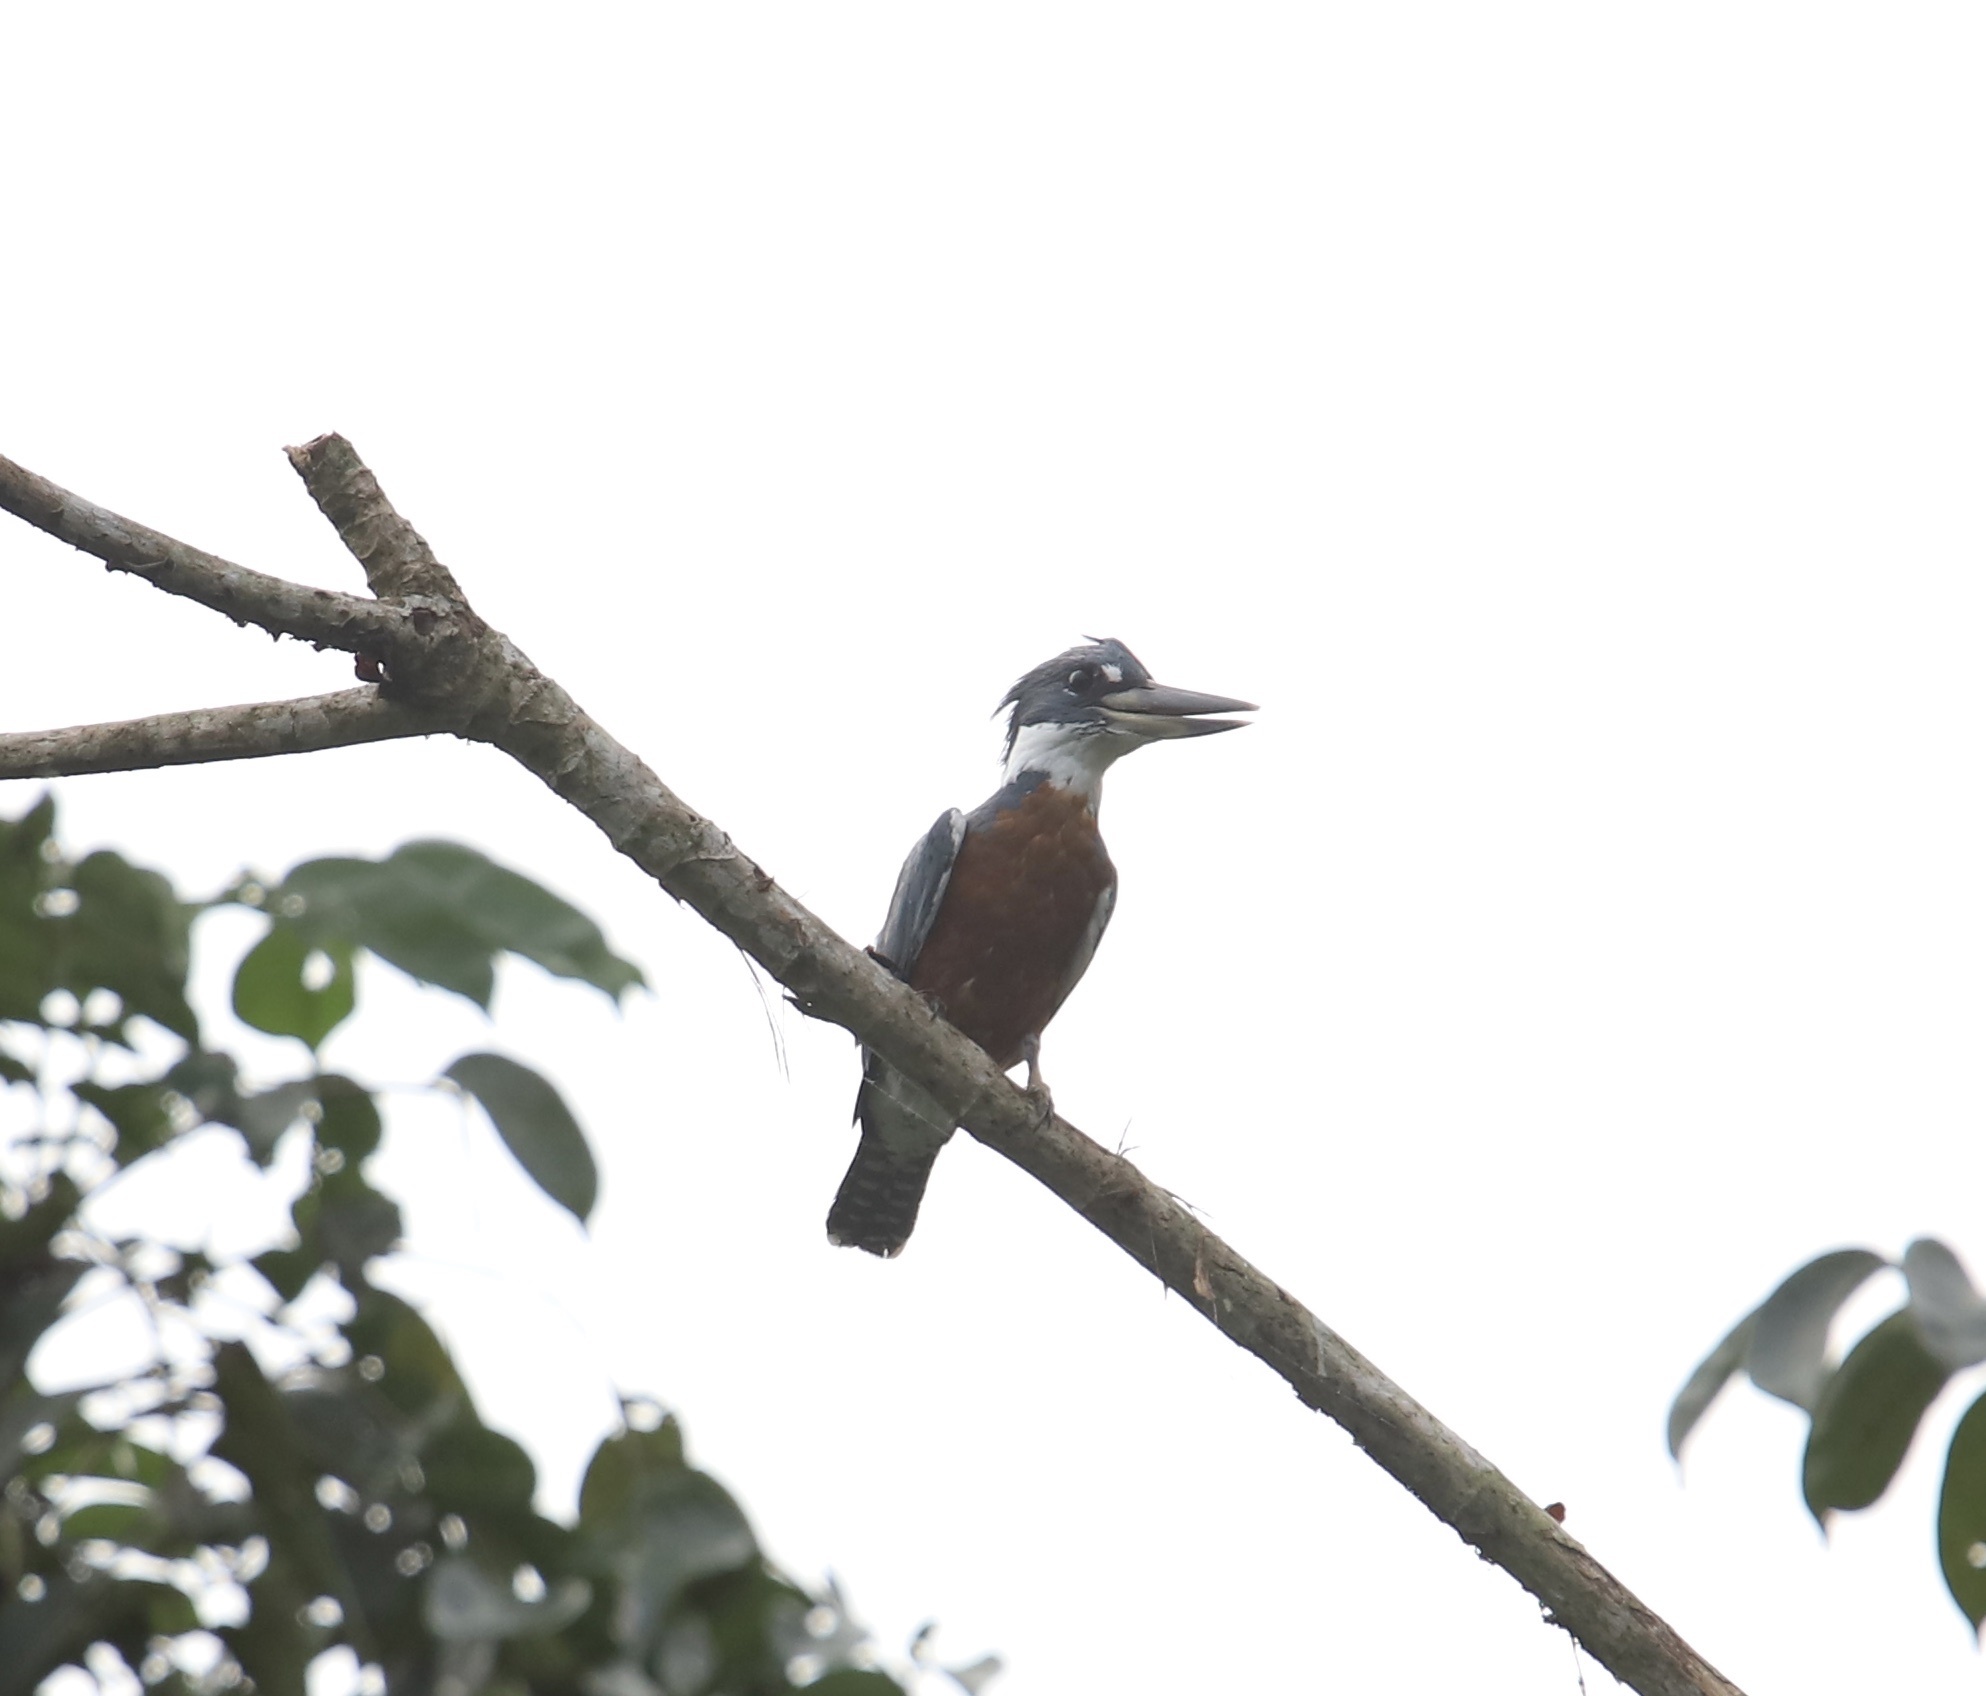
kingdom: Animalia
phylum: Chordata
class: Aves
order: Coraciiformes
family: Alcedinidae
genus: Megaceryle
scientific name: Megaceryle torquata
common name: Ringed kingfisher
